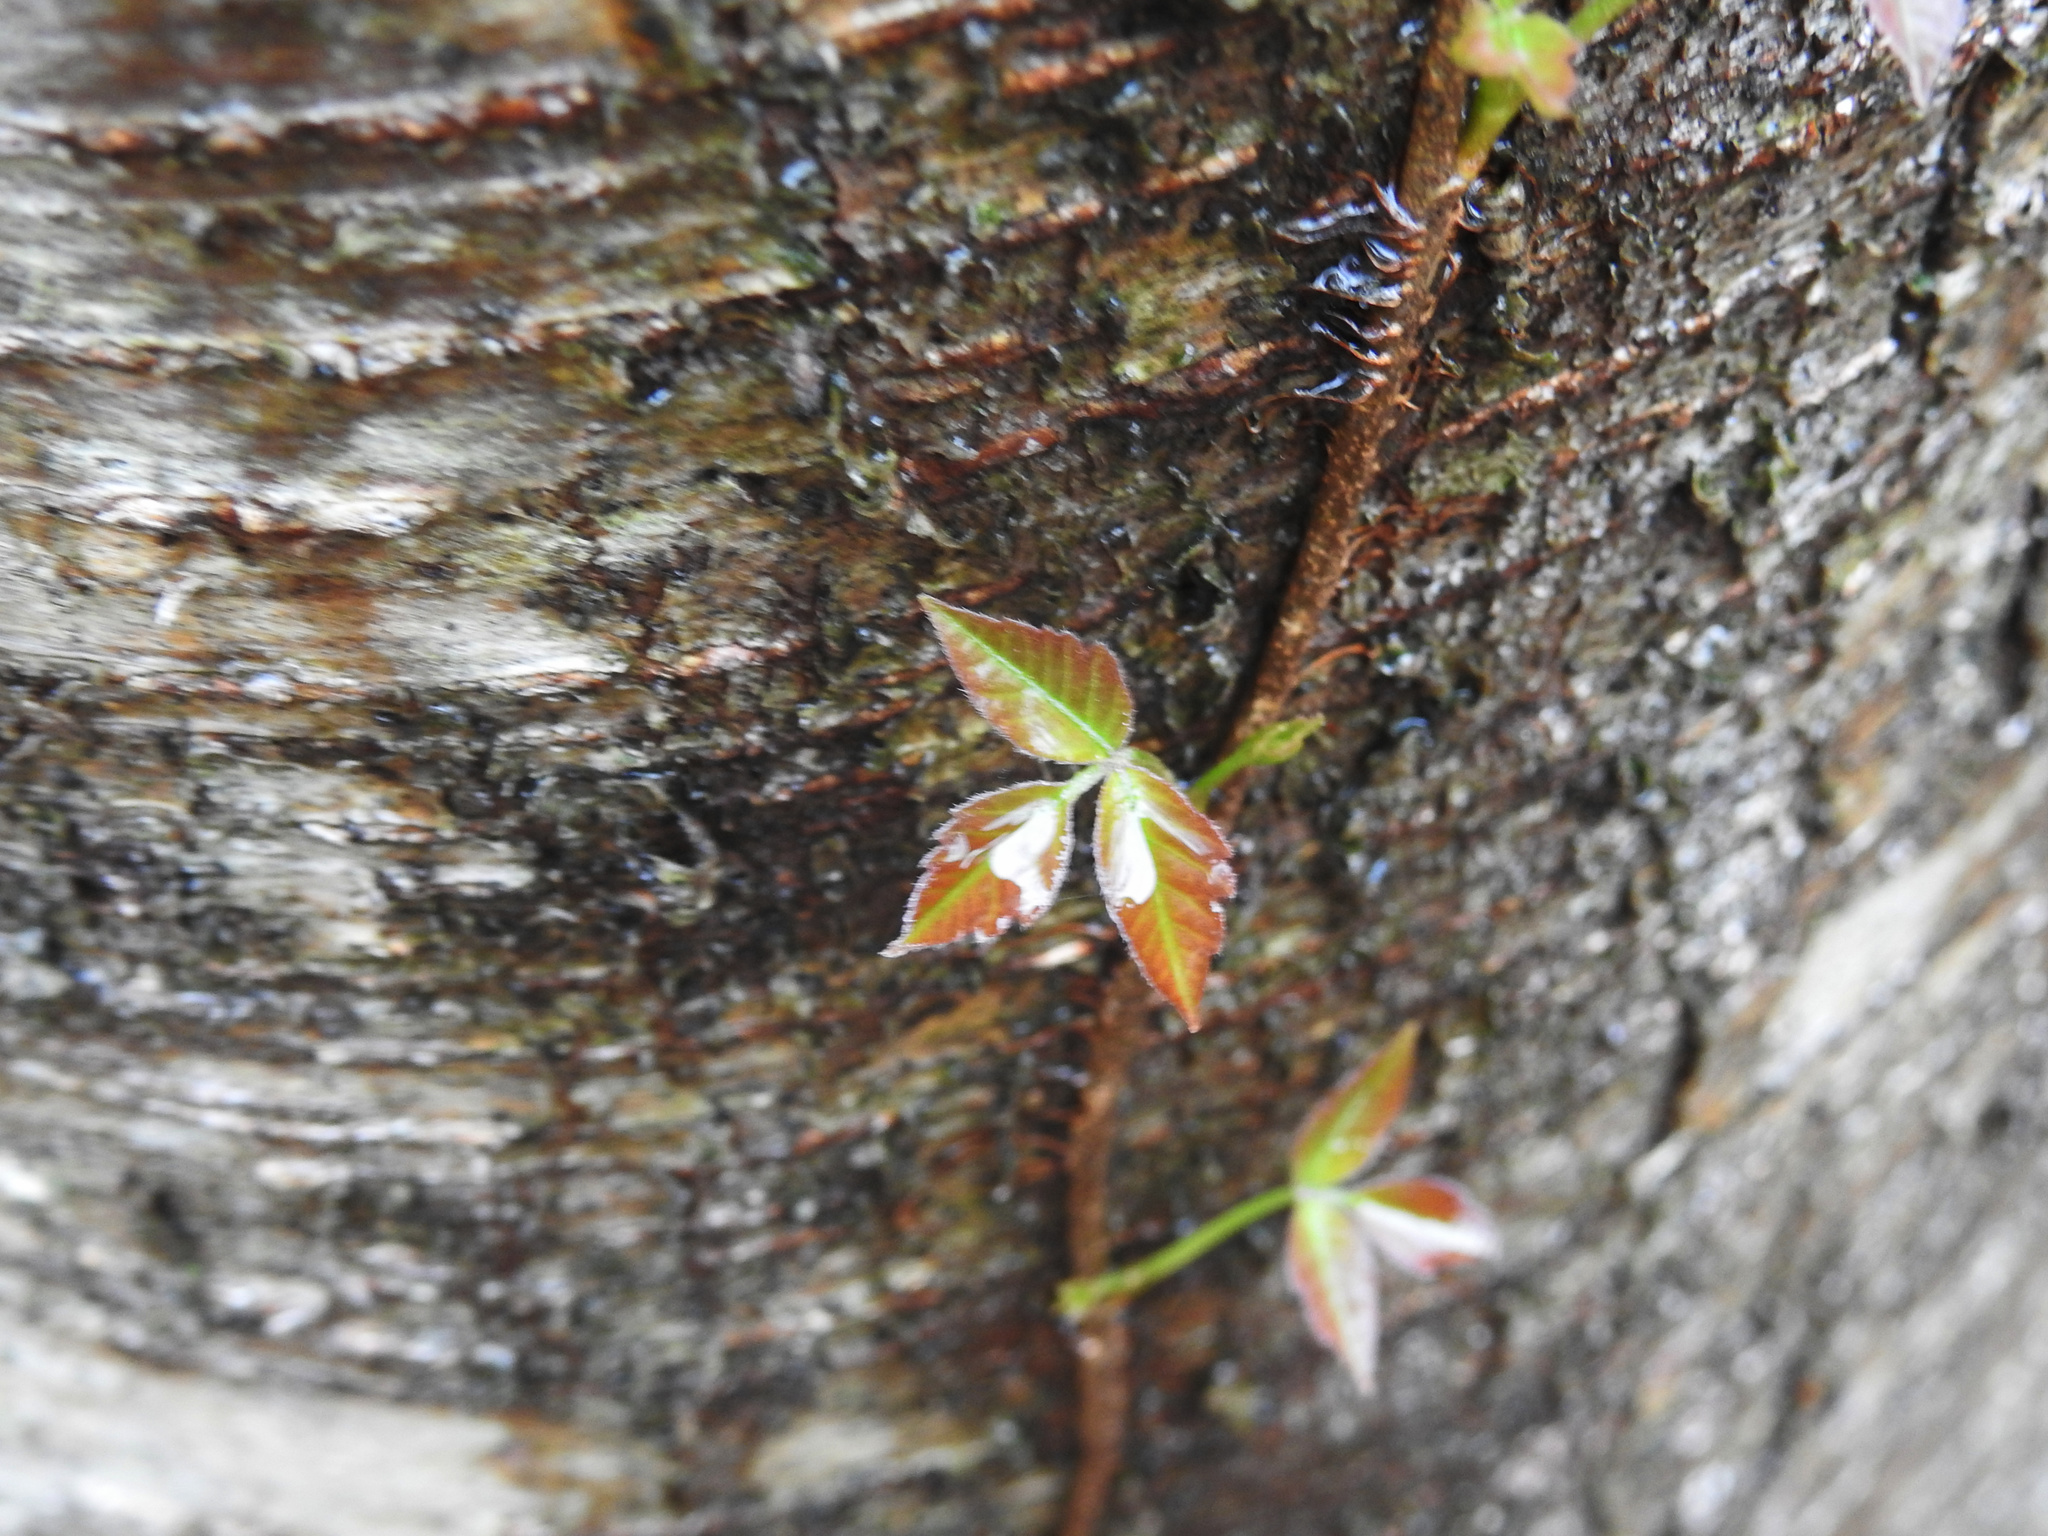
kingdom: Plantae
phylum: Tracheophyta
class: Magnoliopsida
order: Sapindales
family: Anacardiaceae
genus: Toxicodendron
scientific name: Toxicodendron radicans
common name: Poison ivy
